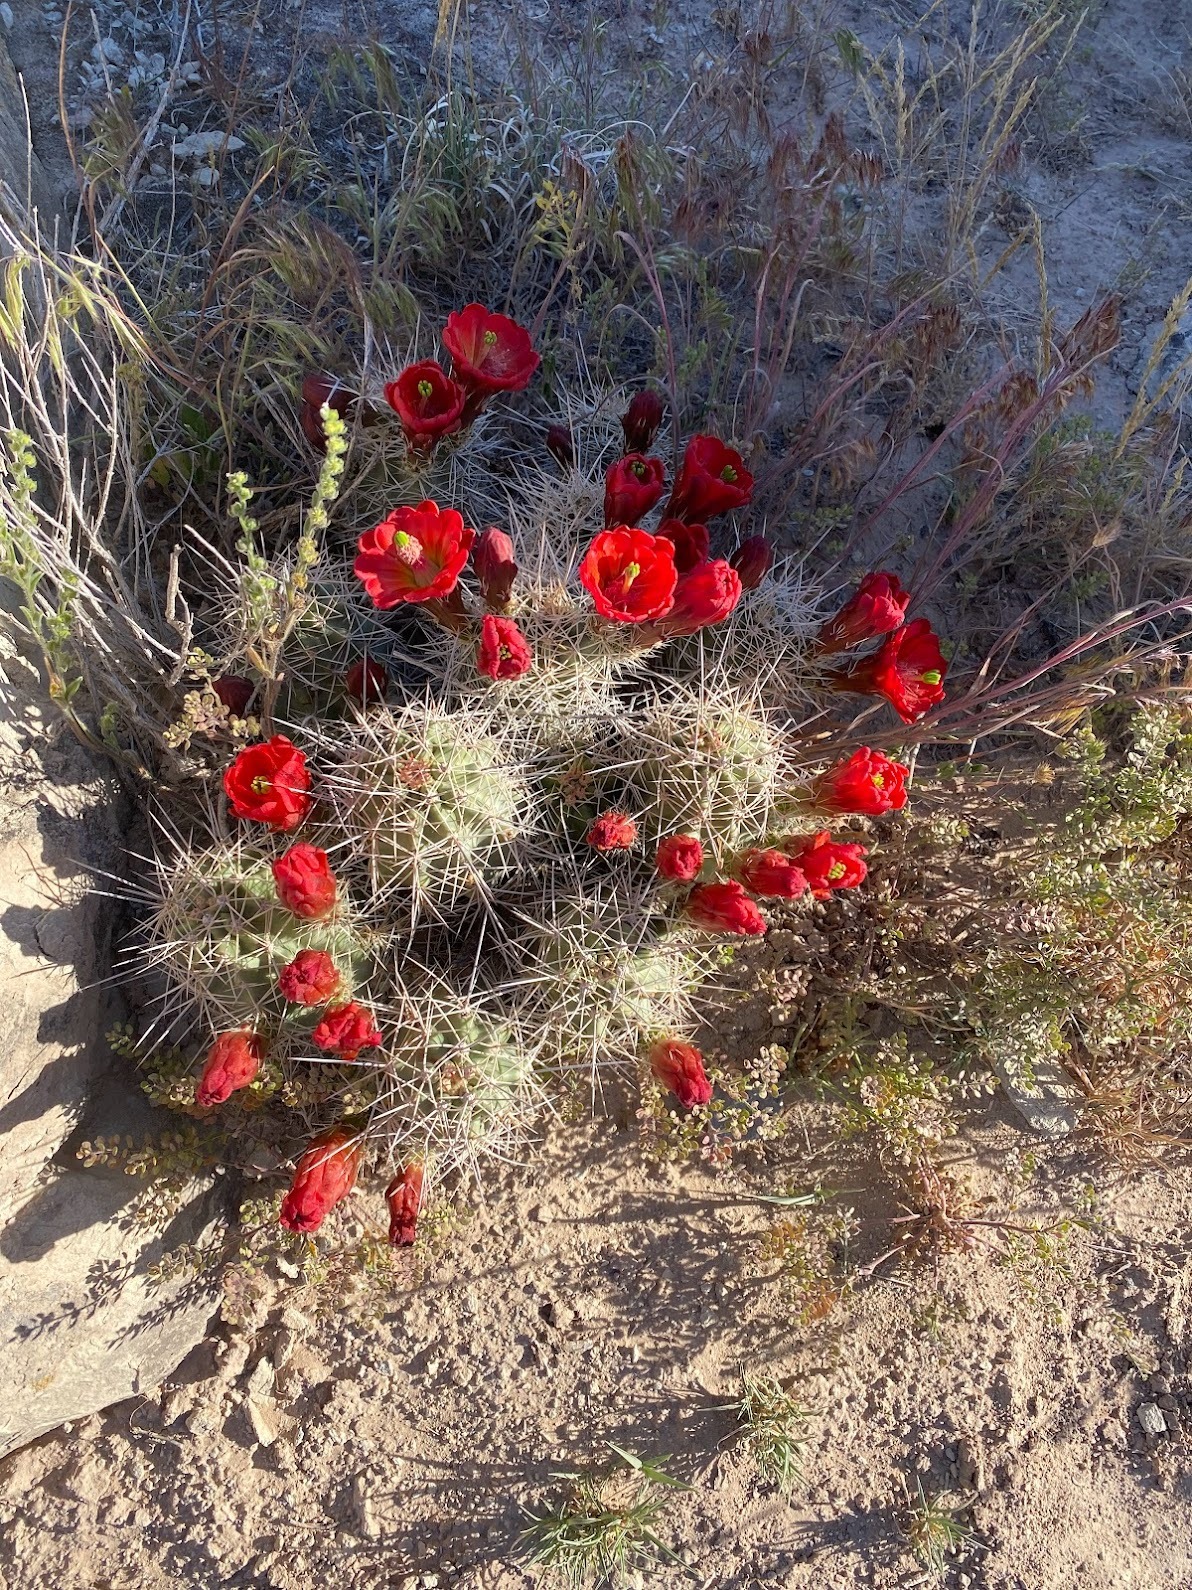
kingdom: Plantae
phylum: Tracheophyta
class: Magnoliopsida
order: Caryophyllales
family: Cactaceae
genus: Echinocereus
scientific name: Echinocereus triglochidiatus
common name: Claretcup hedgehog
